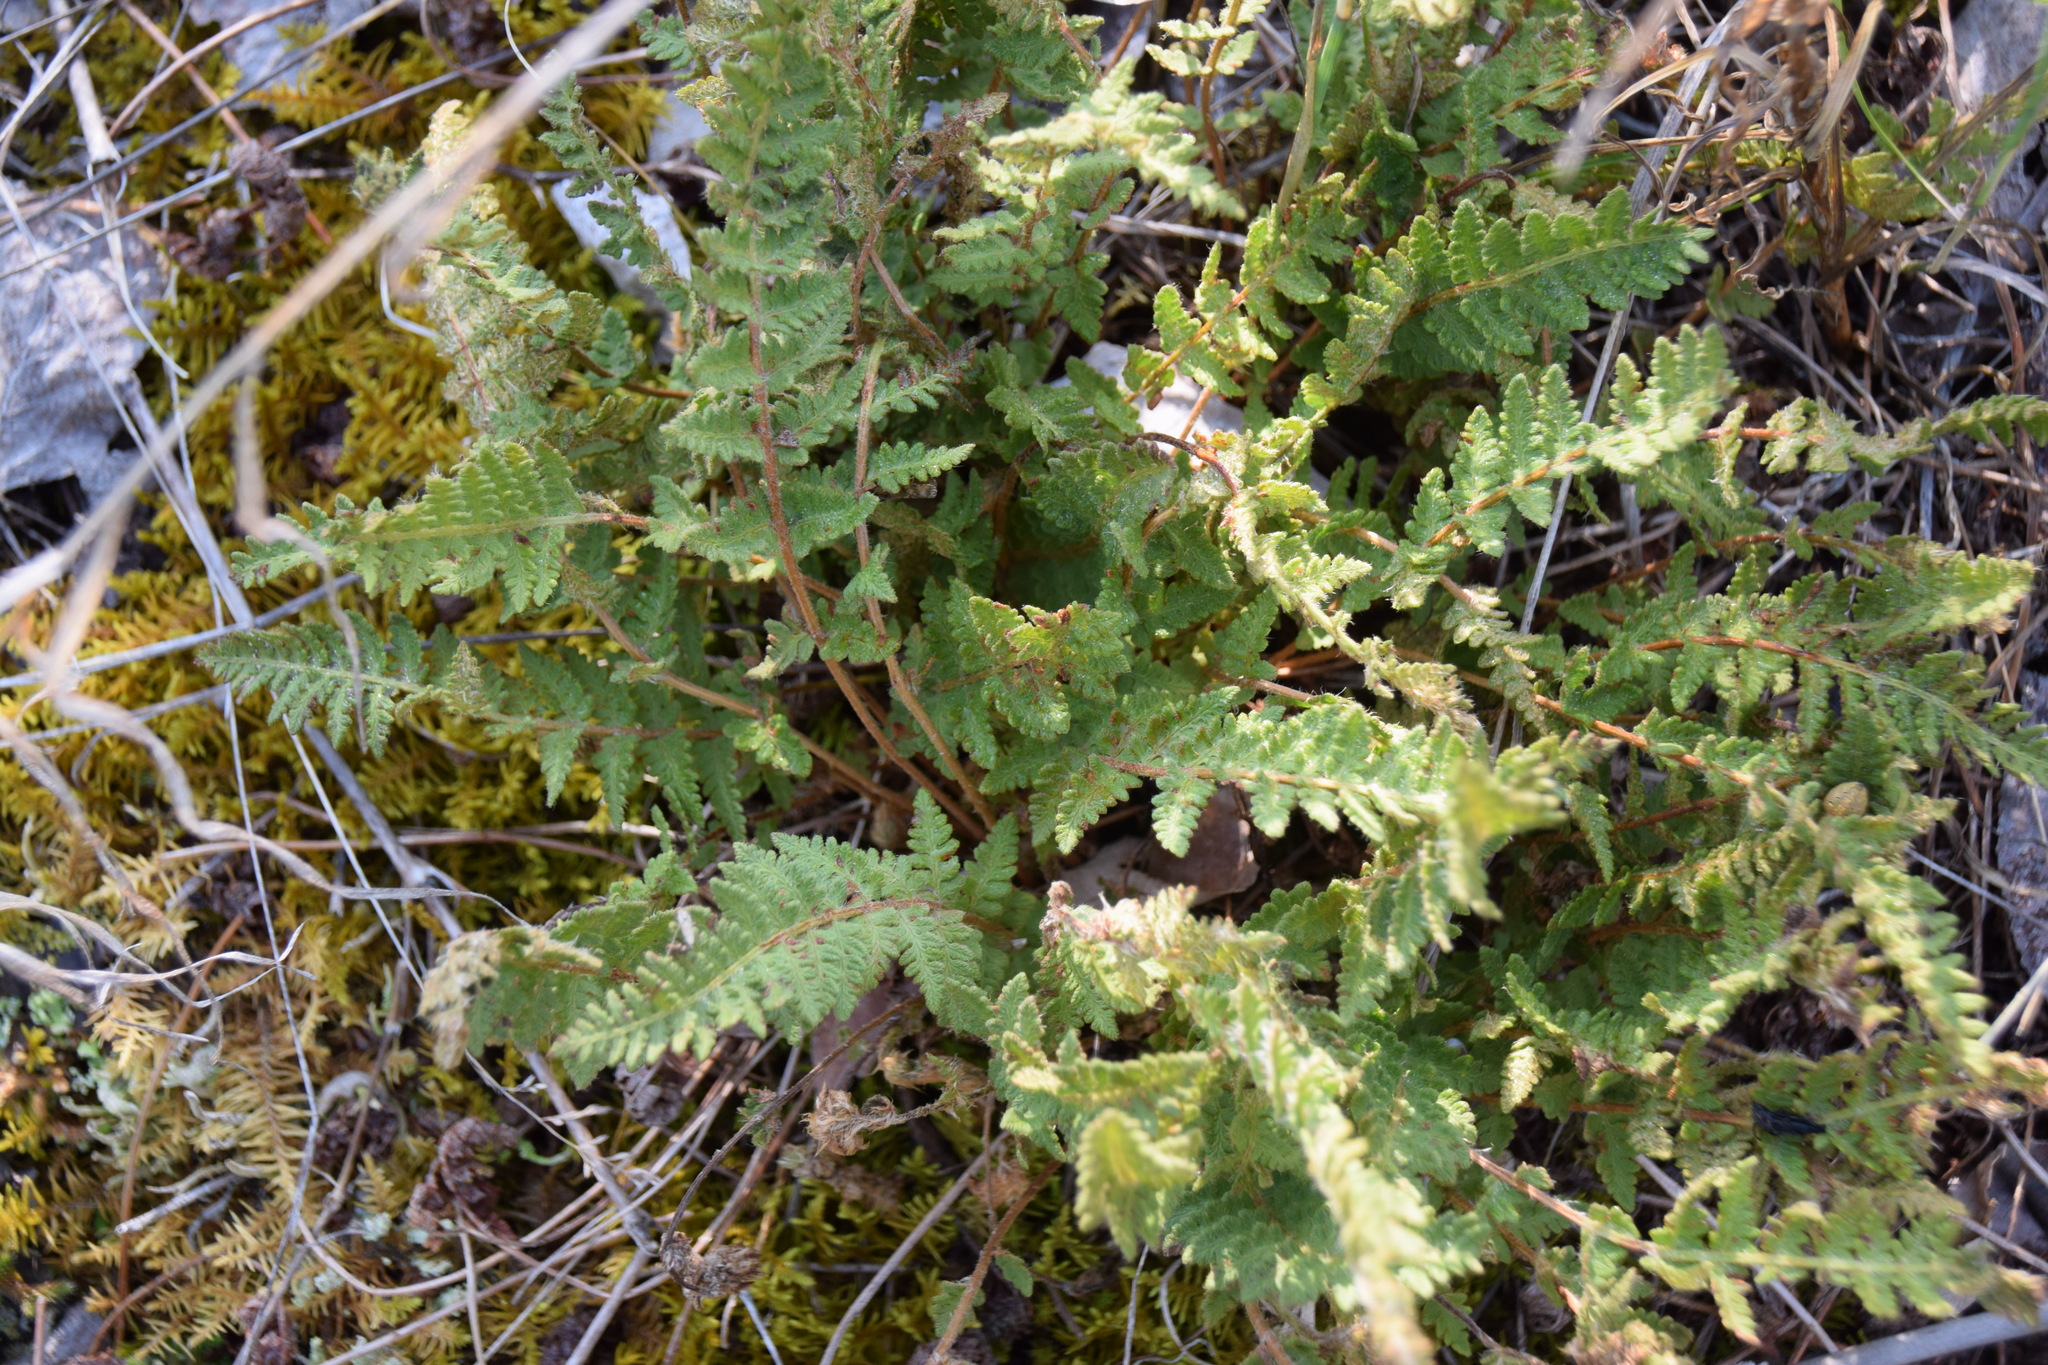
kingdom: Plantae
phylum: Tracheophyta
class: Polypodiopsida
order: Polypodiales
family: Woodsiaceae
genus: Woodsia
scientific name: Woodsia ilvensis
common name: Fragrant woodsia
